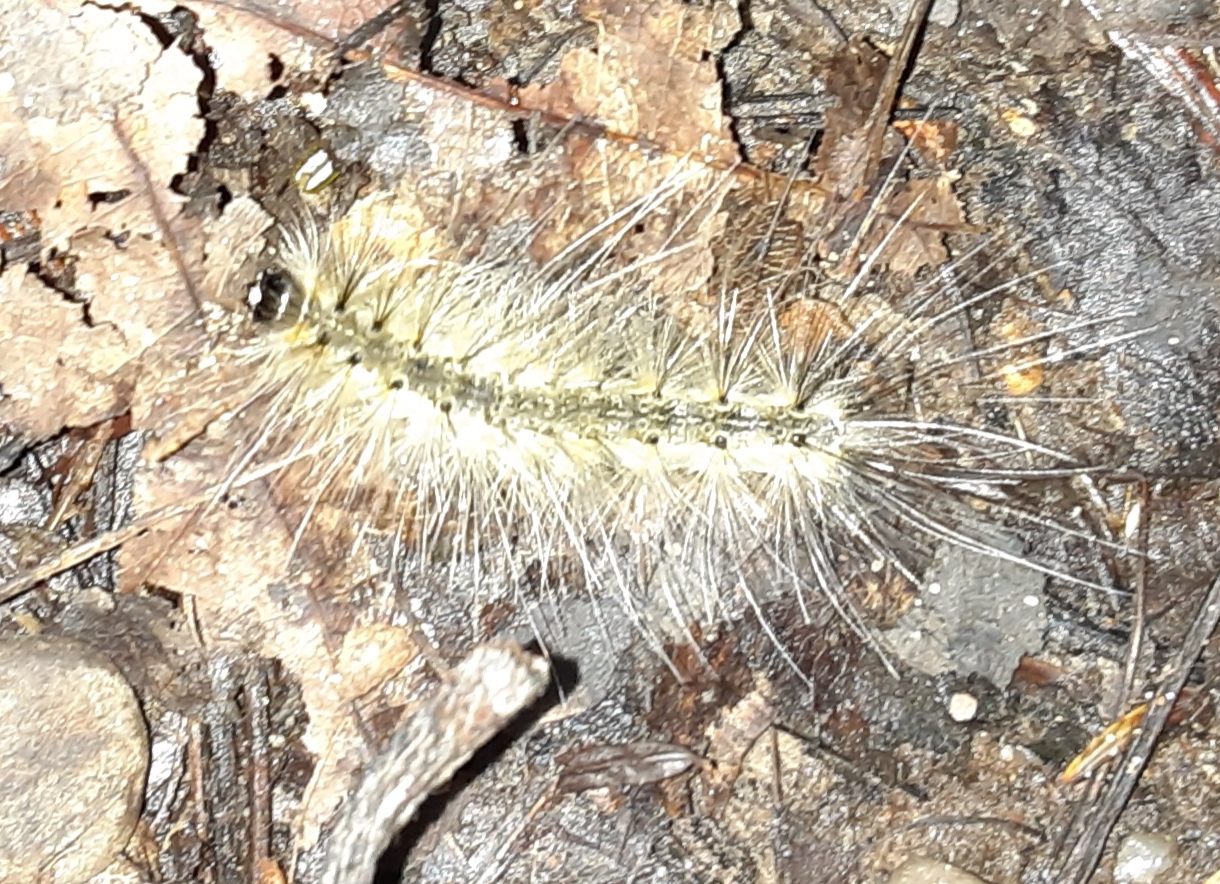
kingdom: Animalia
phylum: Arthropoda
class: Insecta
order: Lepidoptera
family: Erebidae
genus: Hyphantria
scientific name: Hyphantria cunea
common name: American white moth
